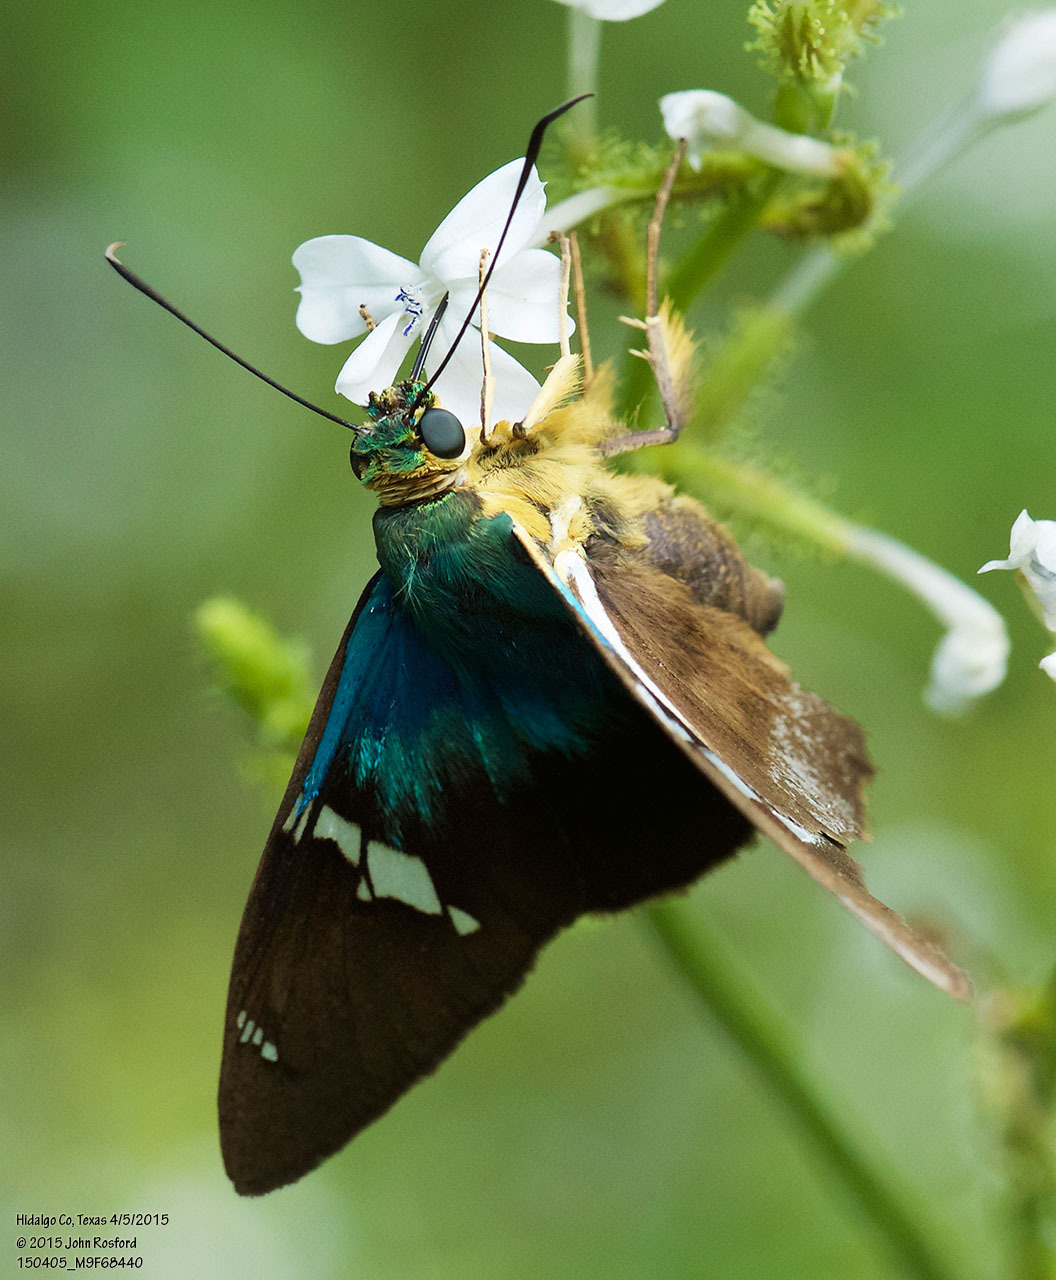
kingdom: Animalia
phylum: Arthropoda
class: Insecta
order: Lepidoptera
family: Hesperiidae
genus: Astraptes
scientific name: Astraptes fulgerator
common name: Two-barred flasher
